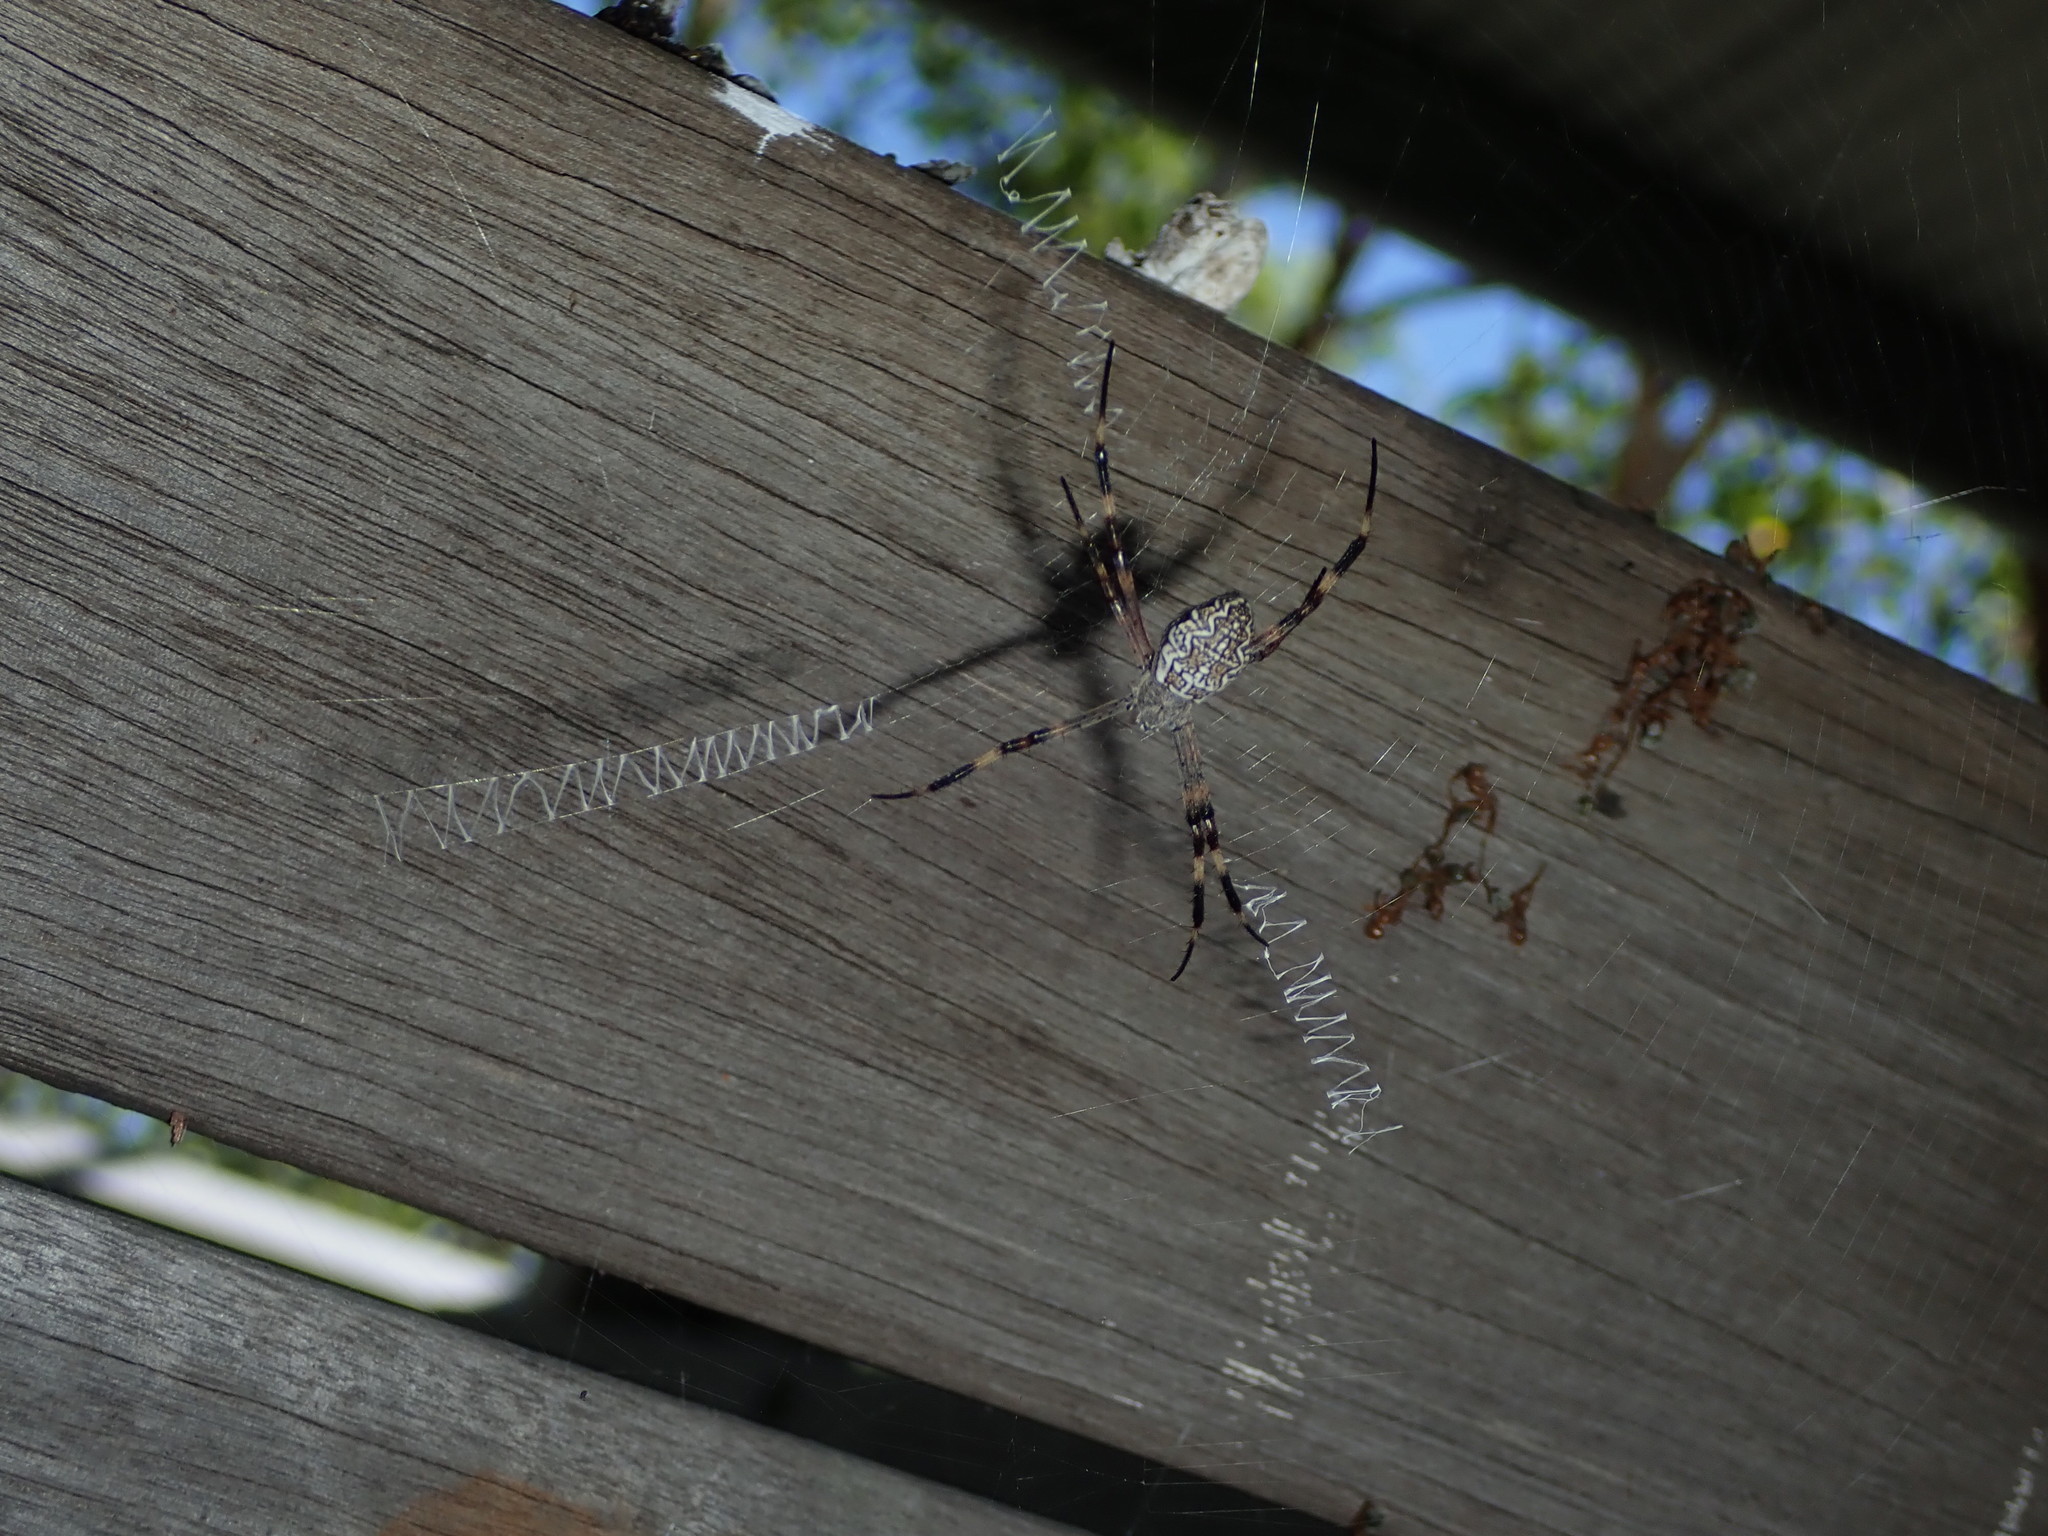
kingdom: Animalia
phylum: Arthropoda
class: Arachnida
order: Araneae
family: Araneidae
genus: Argiope
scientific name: Argiope katherina
